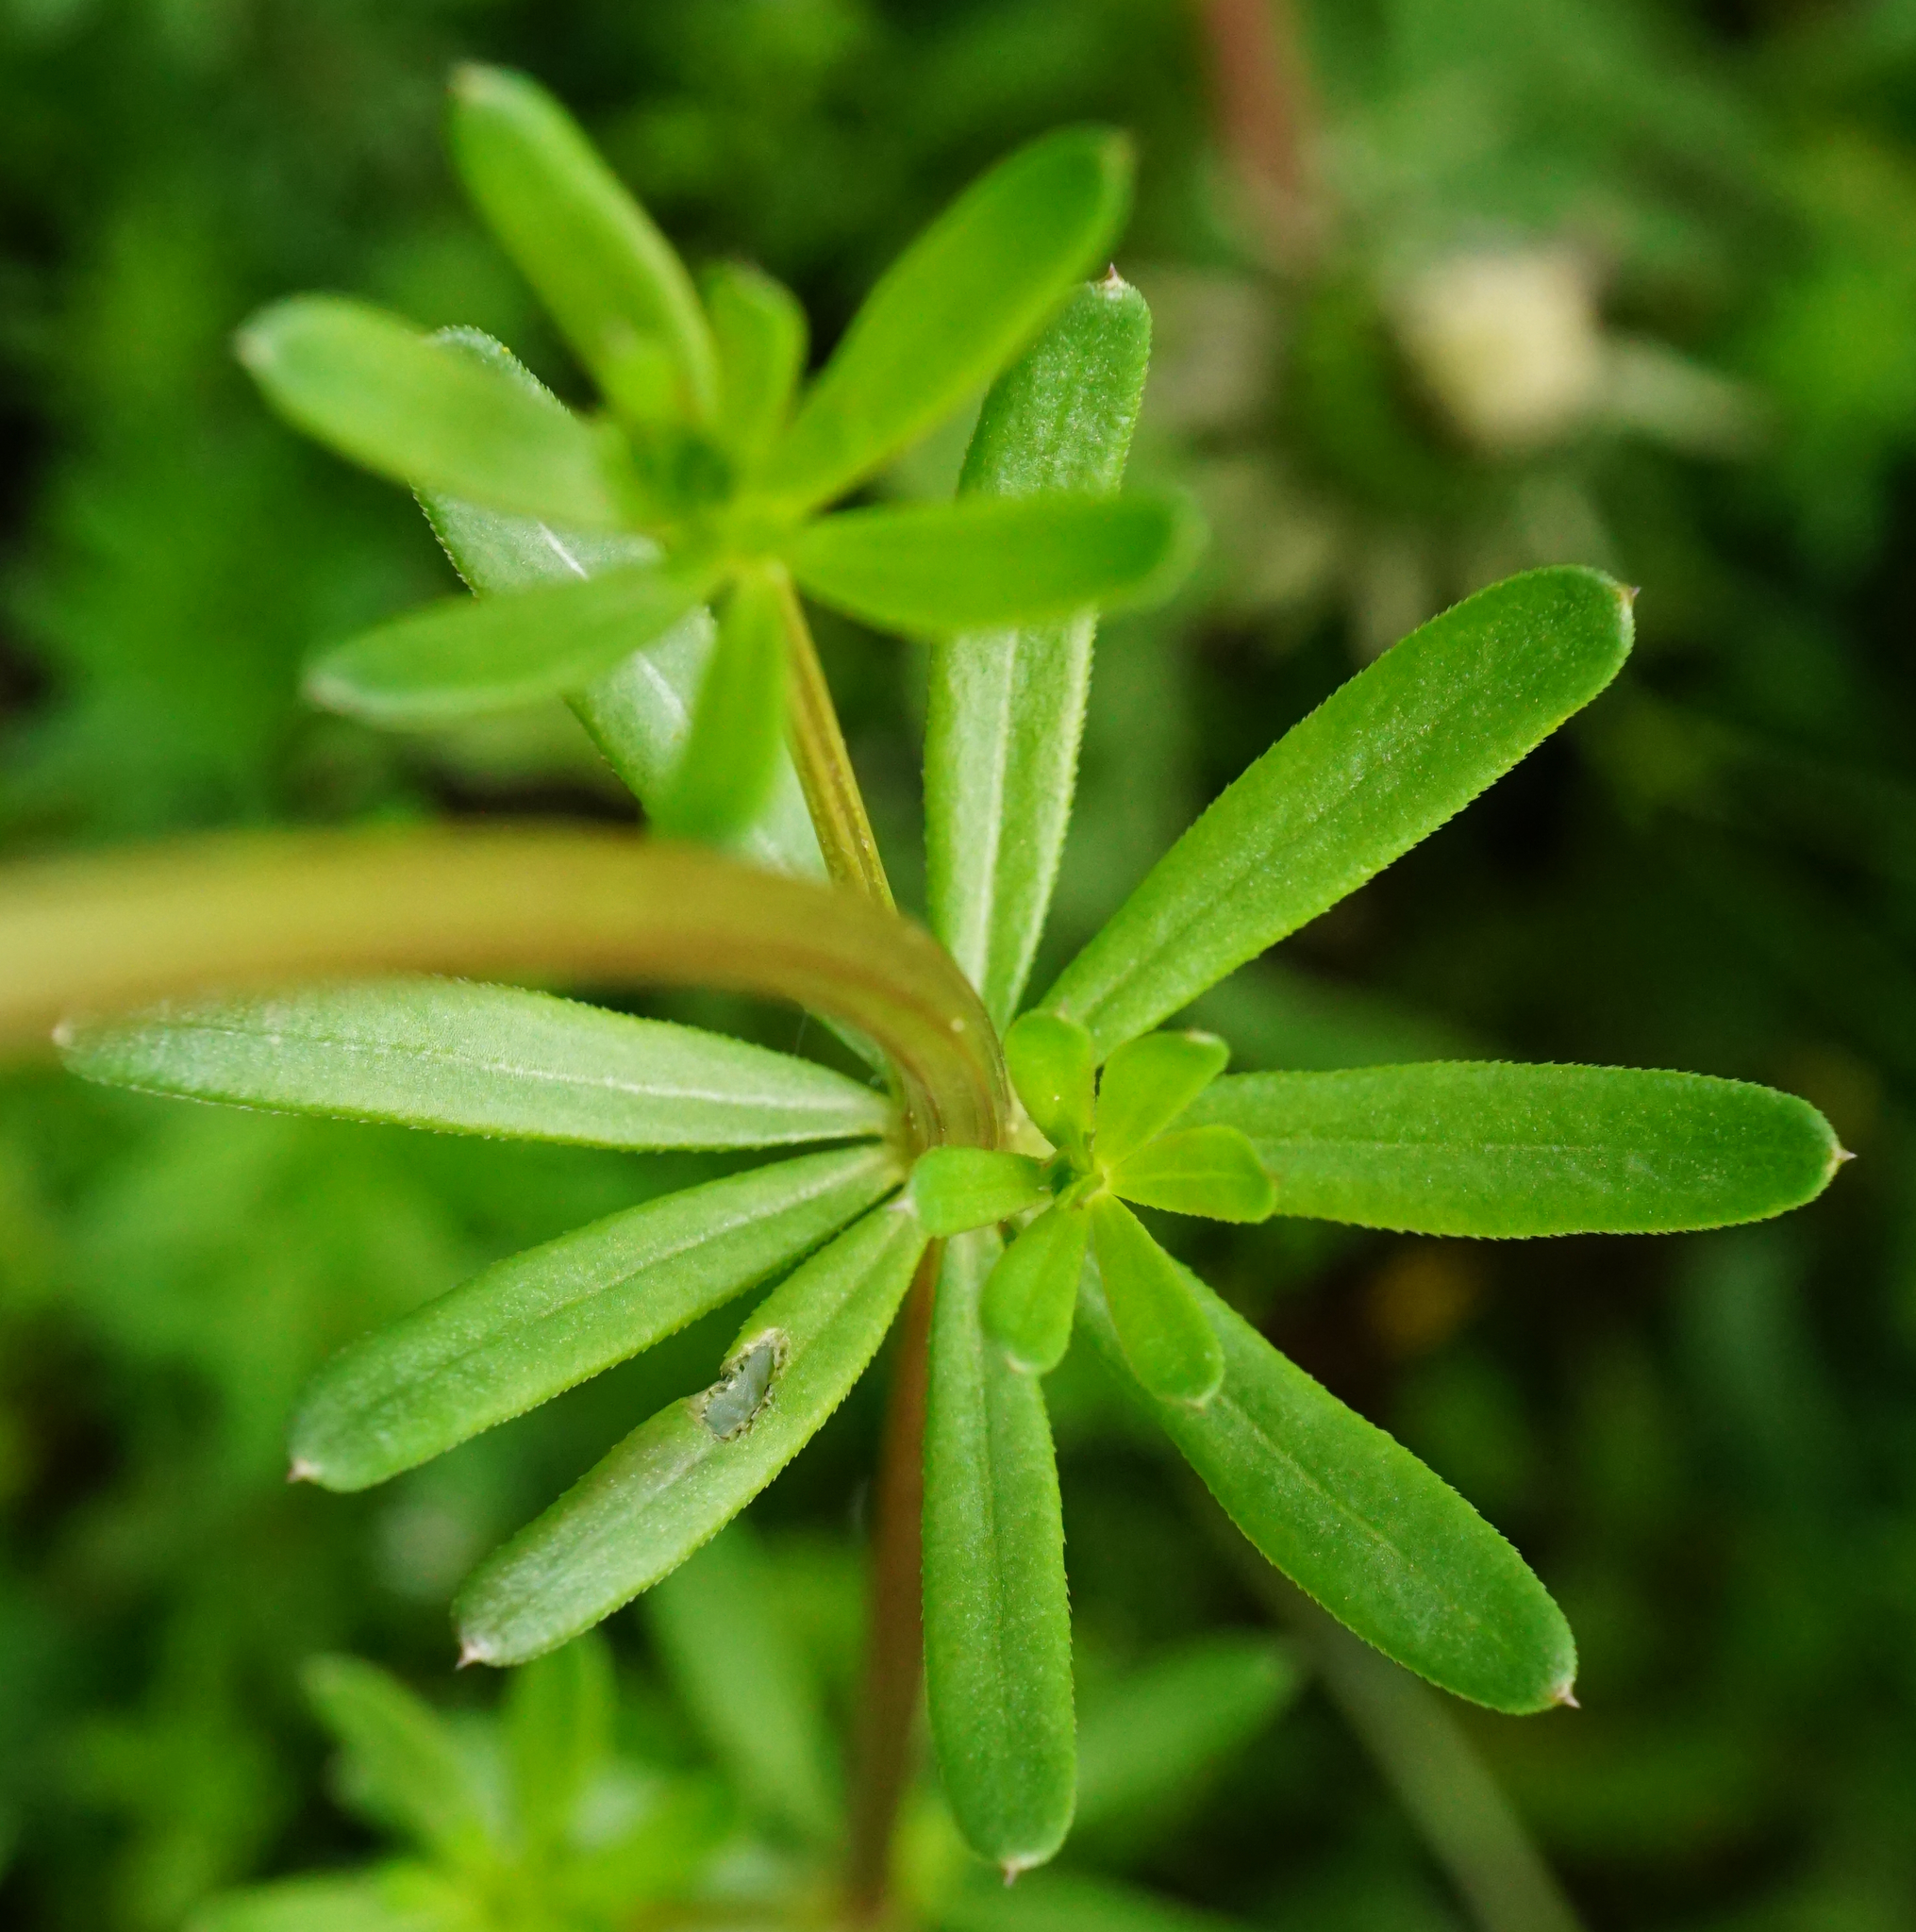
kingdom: Plantae
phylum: Tracheophyta
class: Magnoliopsida
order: Gentianales
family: Rubiaceae
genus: Galium
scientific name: Galium album
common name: White bedstraw
